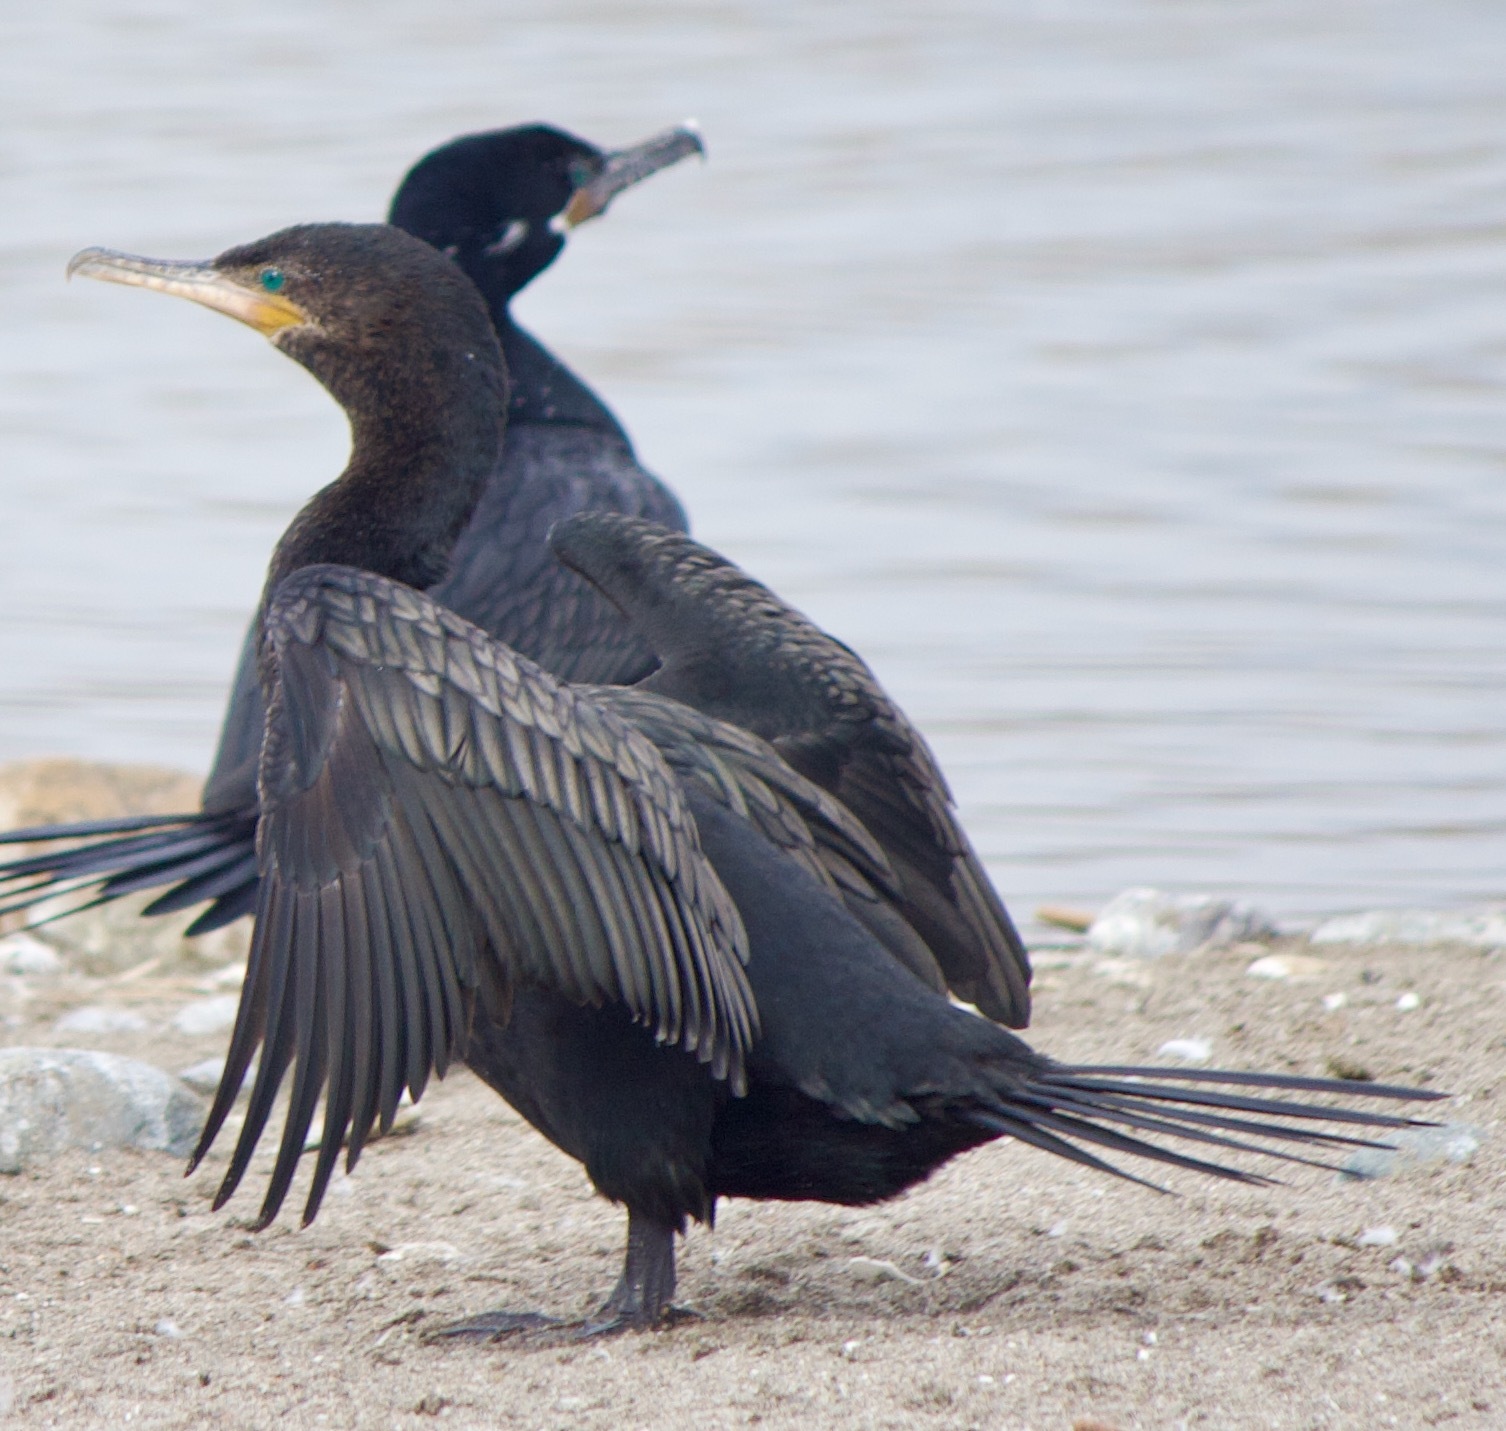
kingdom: Animalia
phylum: Chordata
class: Aves
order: Suliformes
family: Phalacrocoracidae
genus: Phalacrocorax
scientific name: Phalacrocorax brasilianus
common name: Neotropic cormorant
